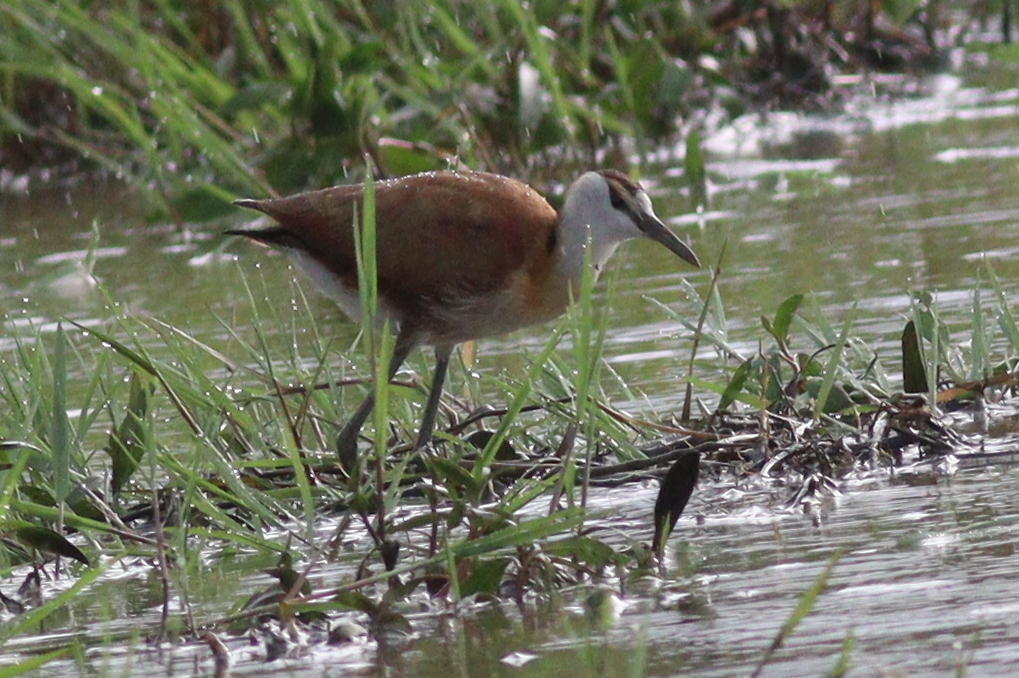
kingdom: Animalia
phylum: Chordata
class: Aves
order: Charadriiformes
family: Jacanidae
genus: Actophilornis
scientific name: Actophilornis africanus
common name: African jacana
